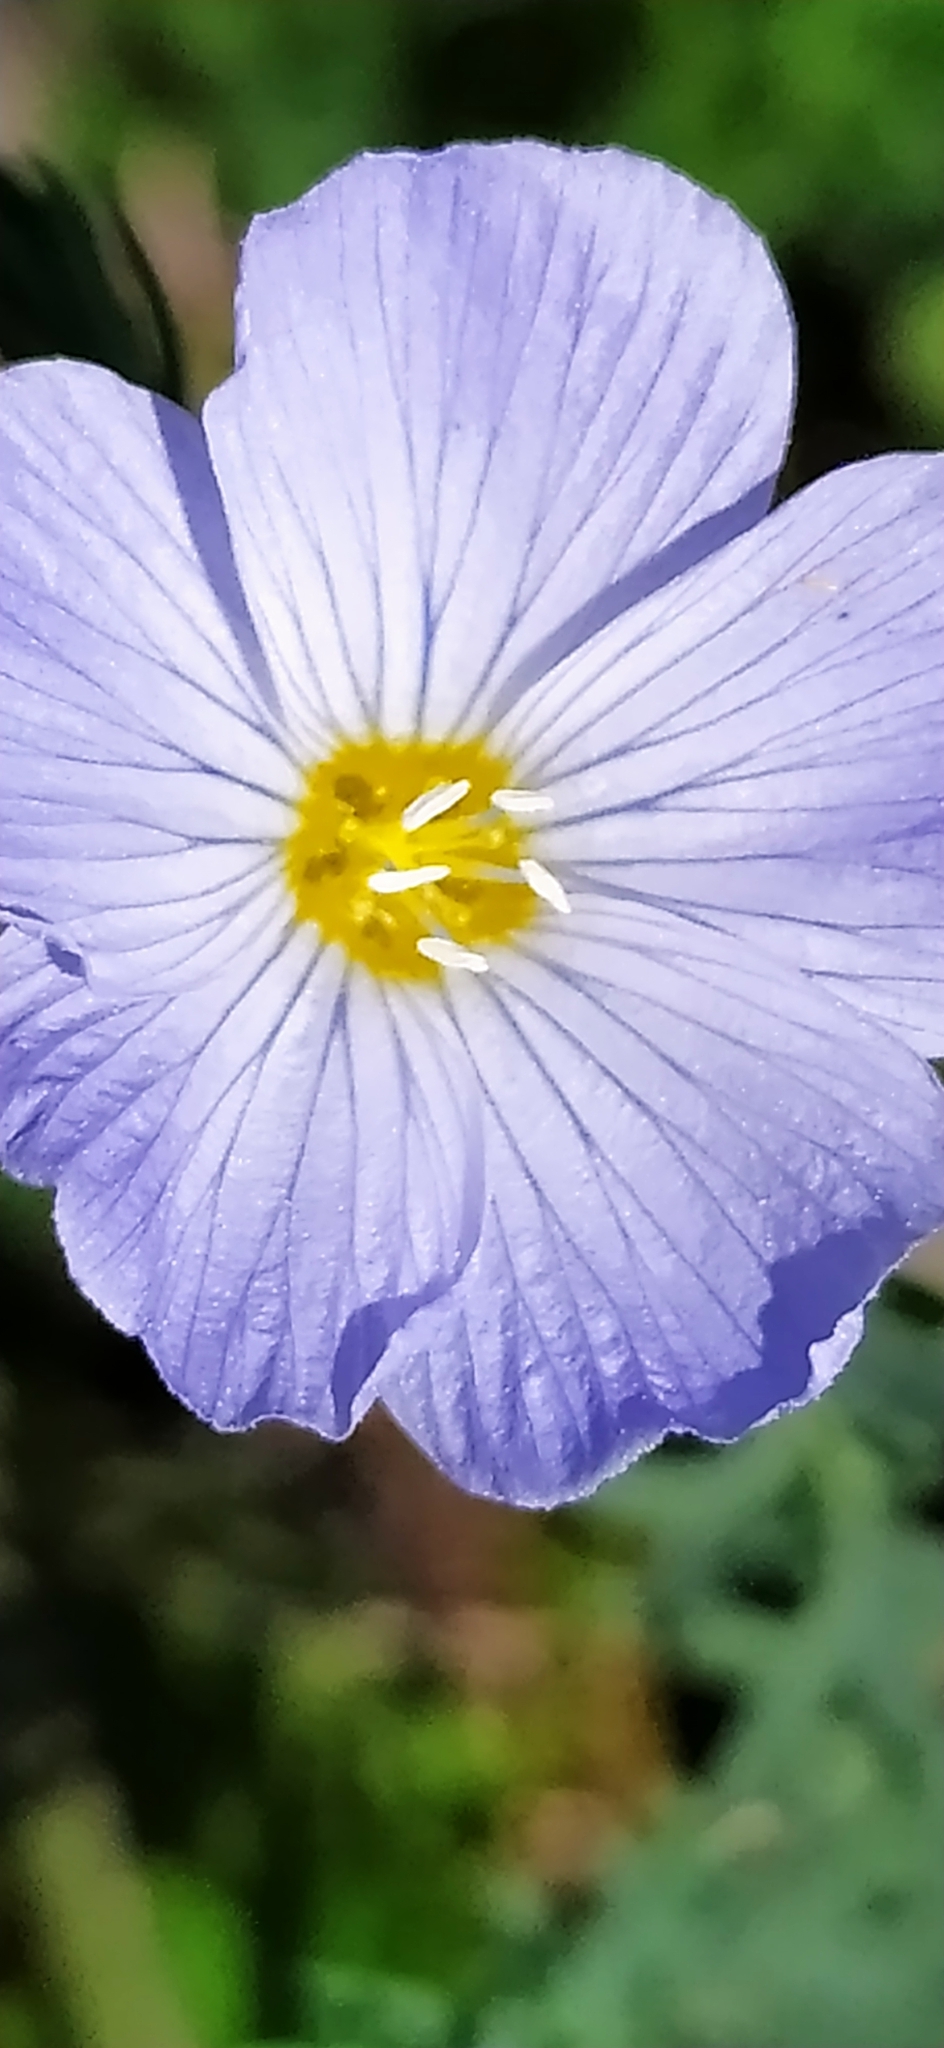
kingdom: Plantae
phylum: Tracheophyta
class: Magnoliopsida
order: Malpighiales
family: Linaceae
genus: Linum
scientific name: Linum komarovii
